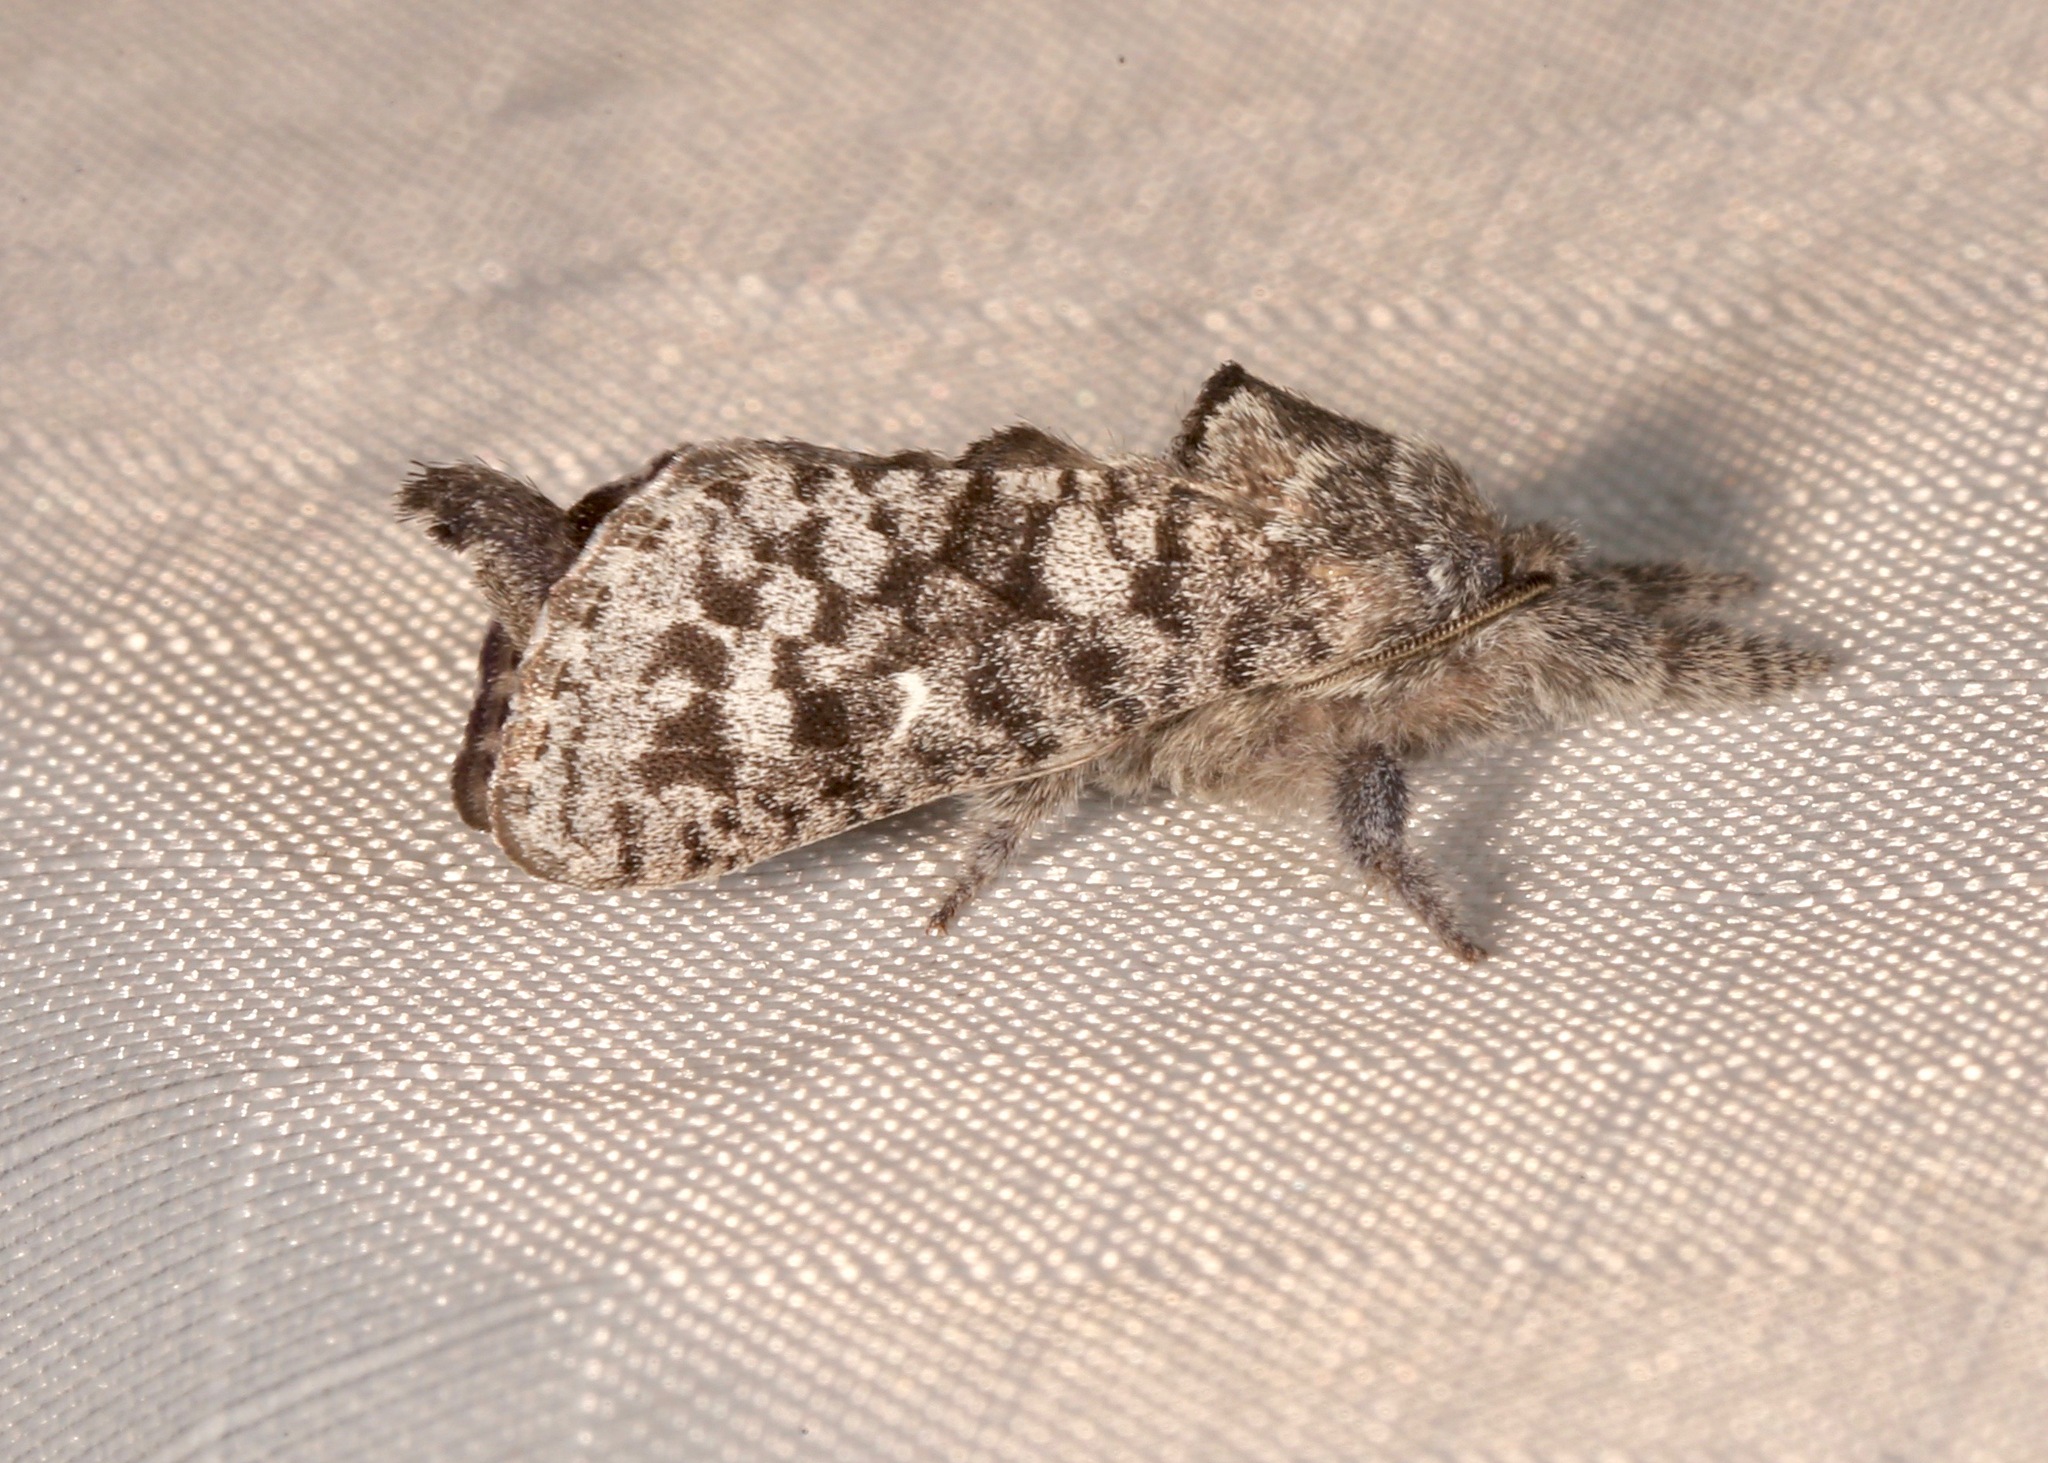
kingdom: Animalia
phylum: Arthropoda
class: Insecta
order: Lepidoptera
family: Cossidae
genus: Givira
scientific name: Givira francesca
